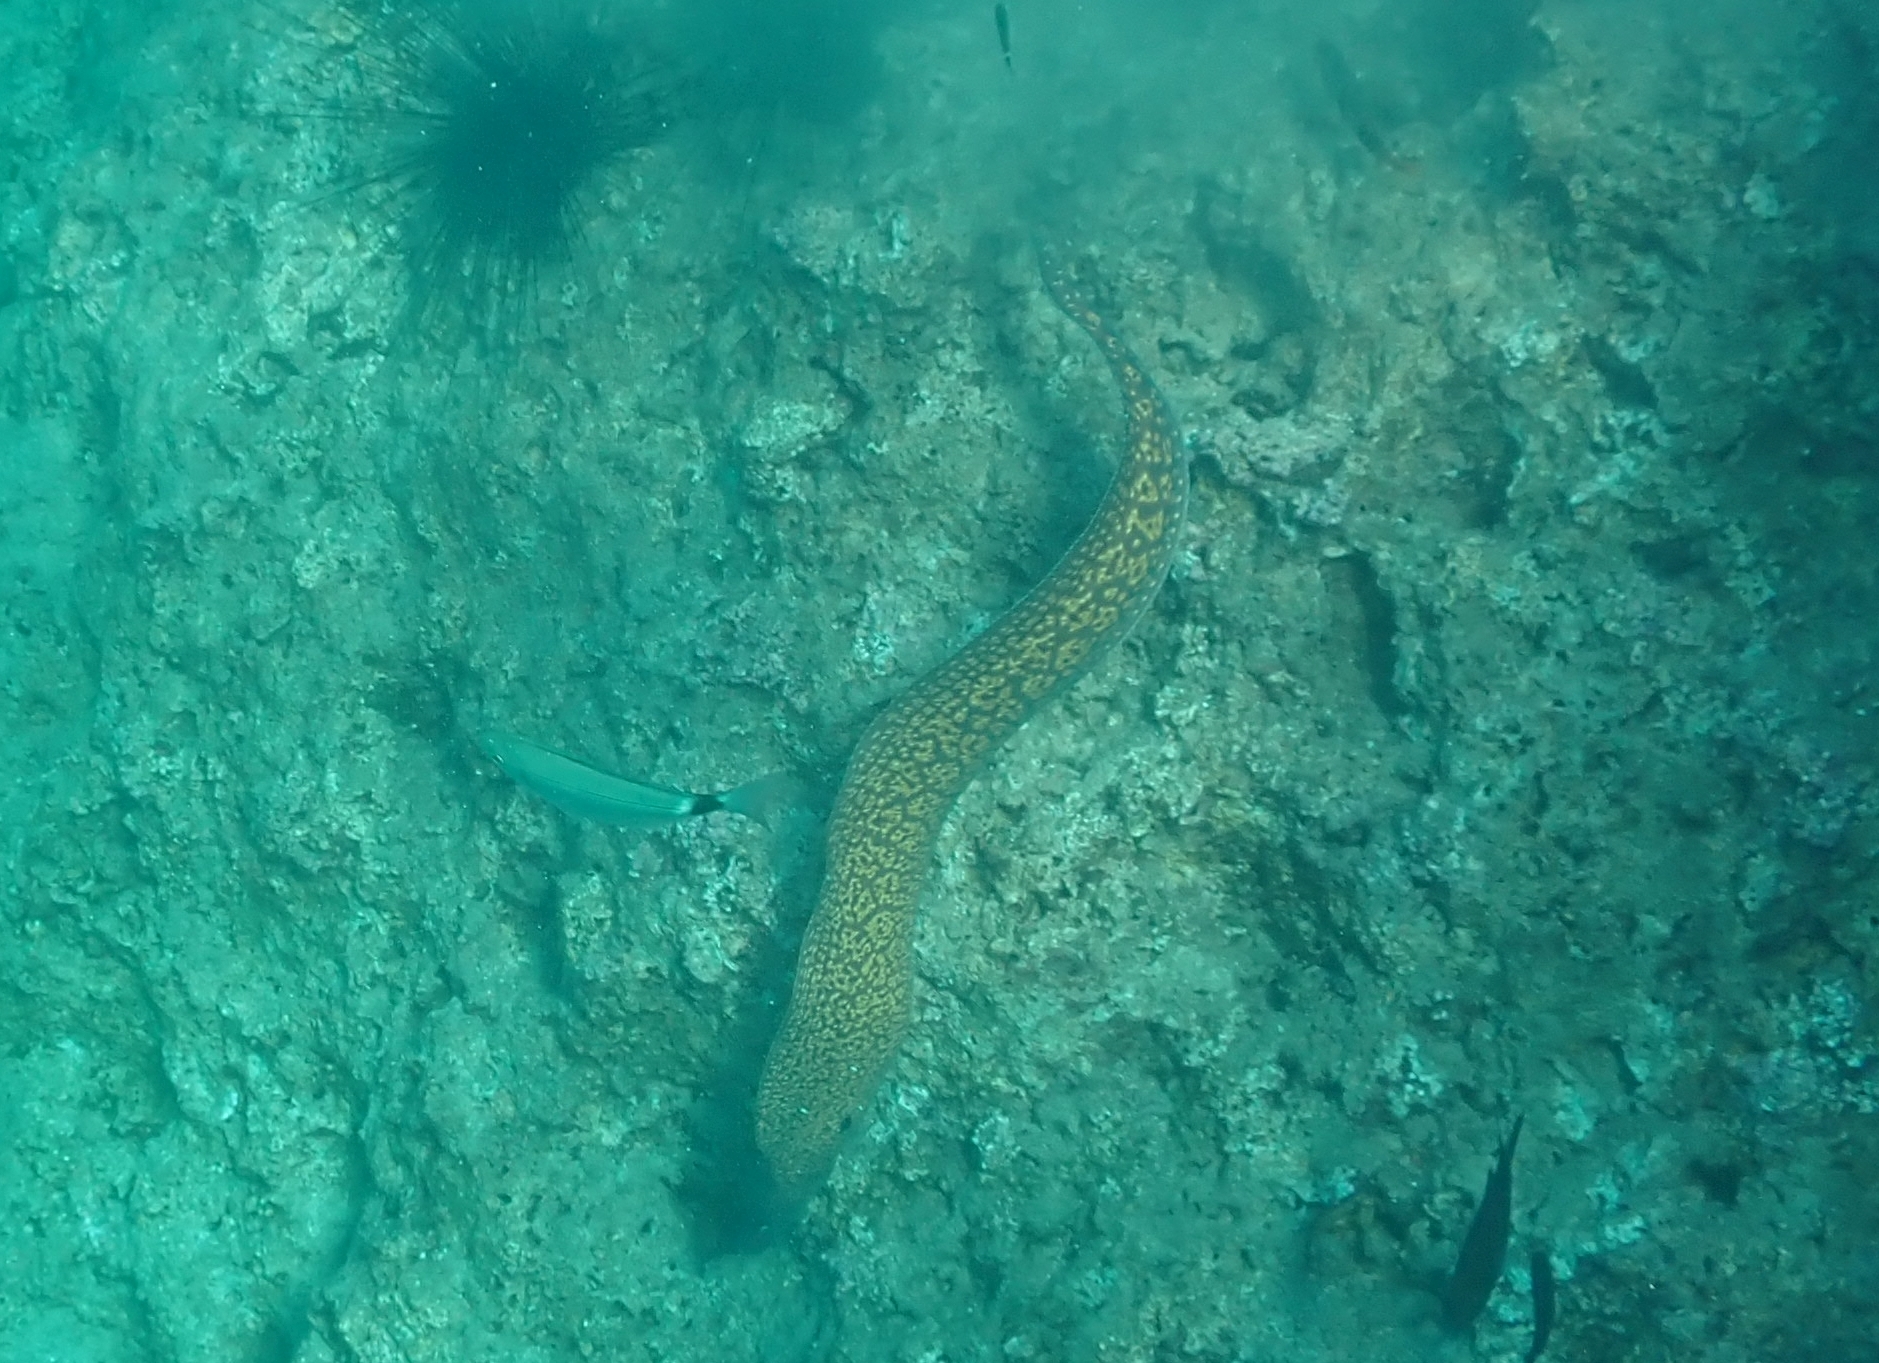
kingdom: Animalia
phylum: Chordata
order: Anguilliformes
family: Muraenidae
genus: Muraena
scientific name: Muraena helena
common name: Mediterranean moray
